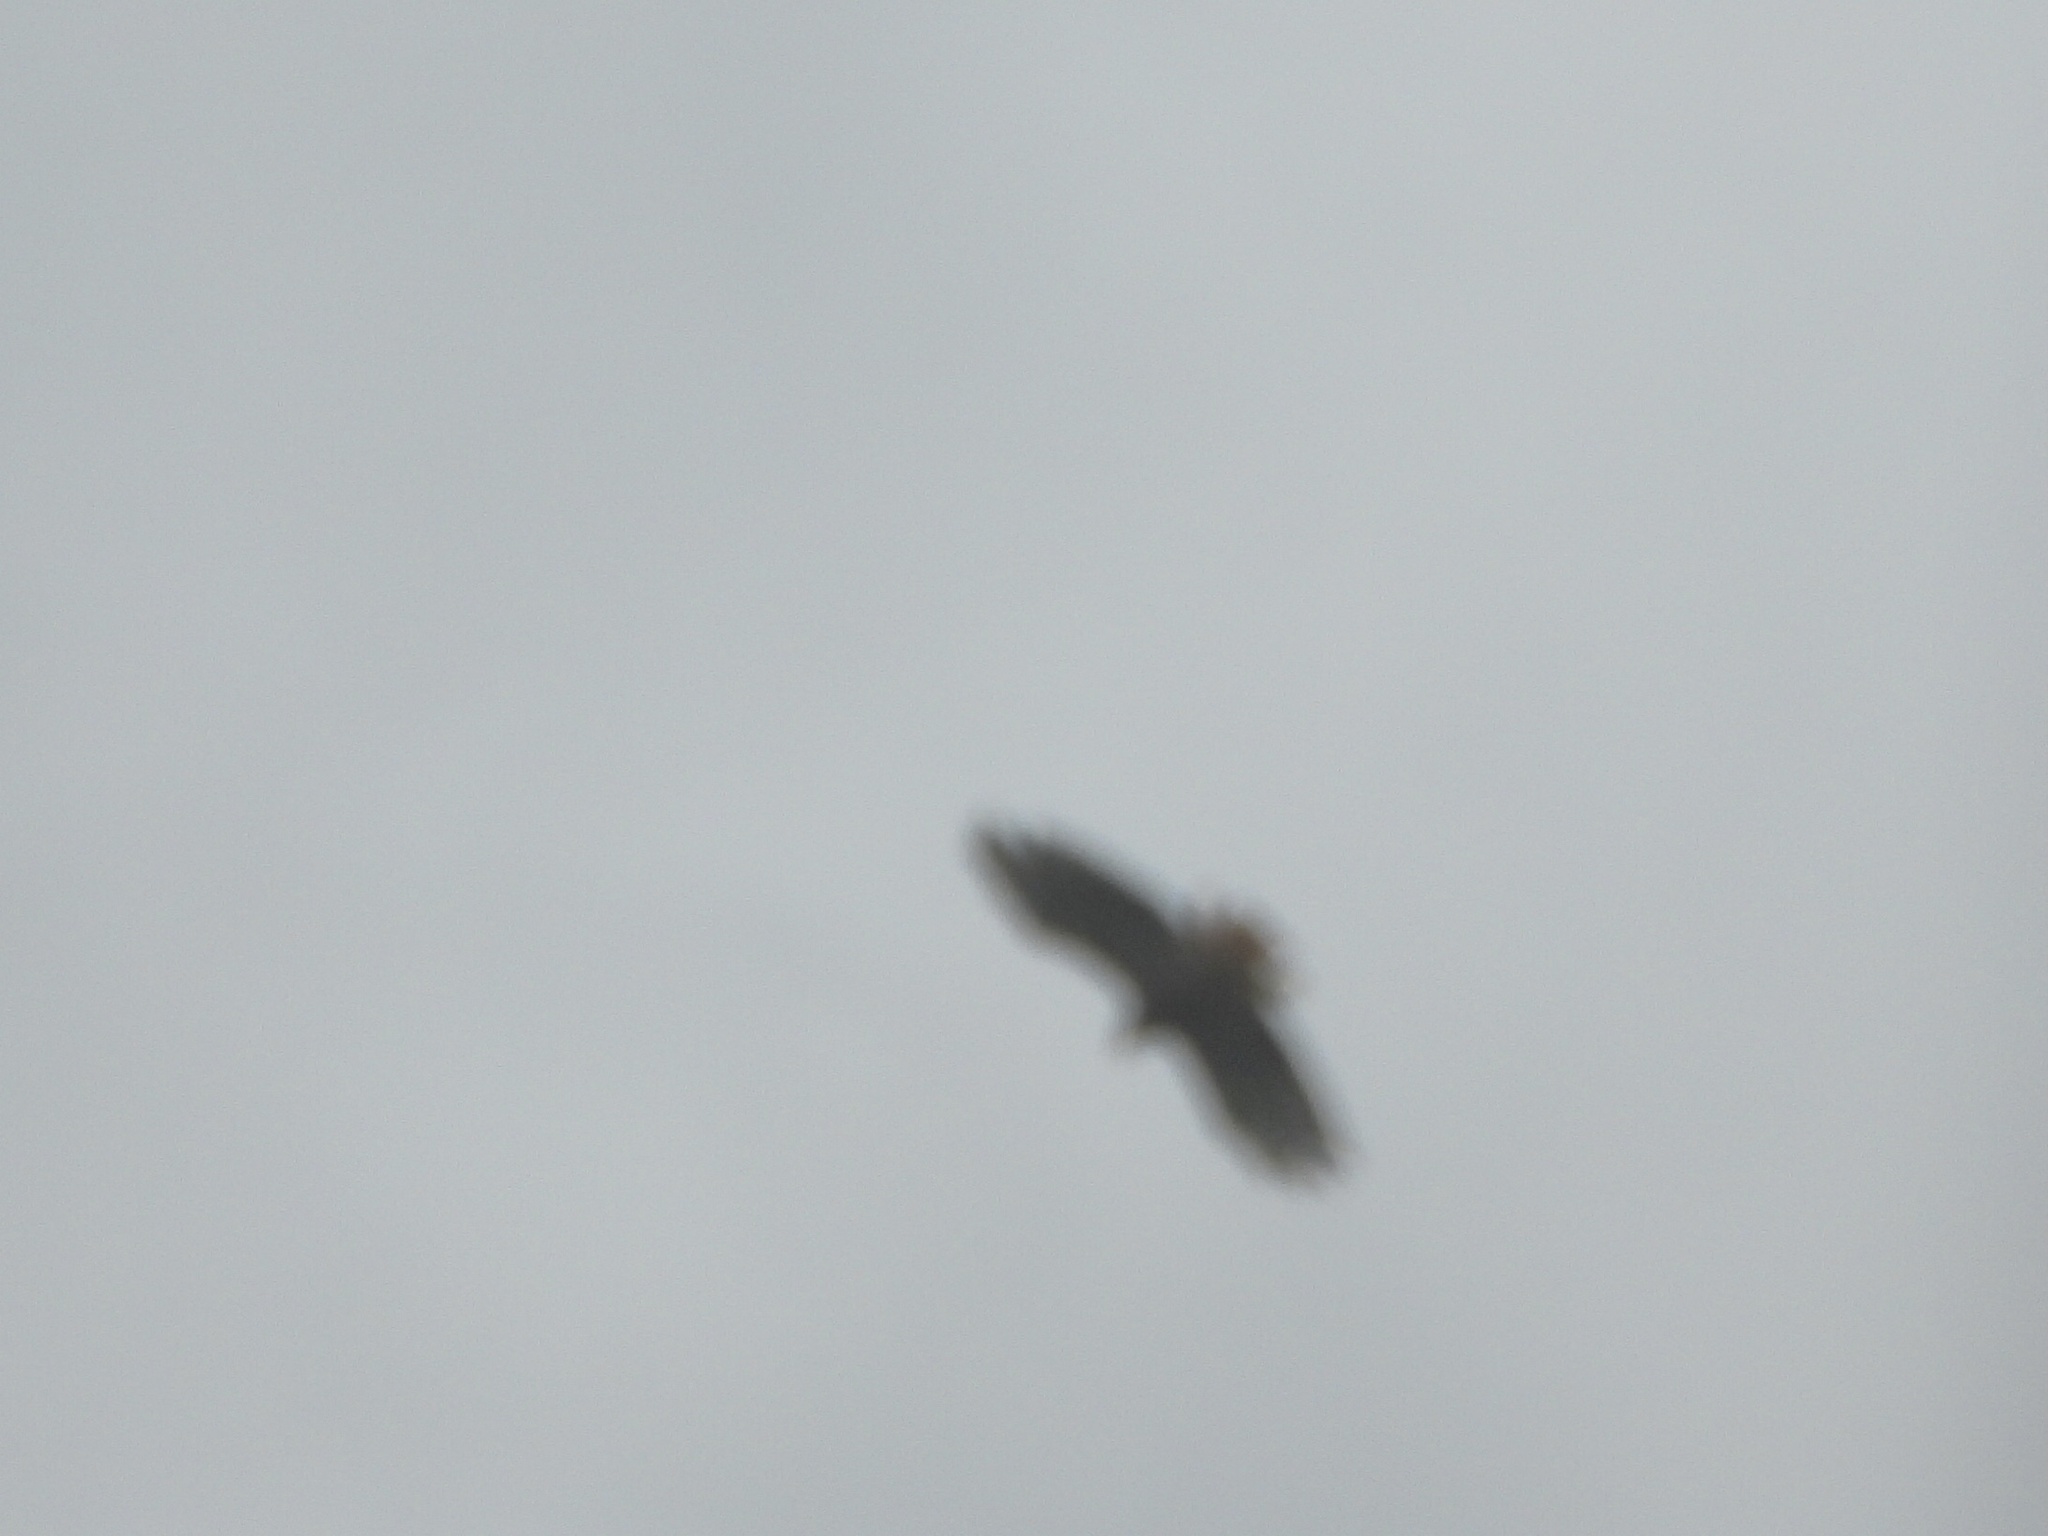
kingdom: Animalia
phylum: Chordata
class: Aves
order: Accipitriformes
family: Accipitridae
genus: Buteo
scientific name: Buteo jamaicensis
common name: Red-tailed hawk
